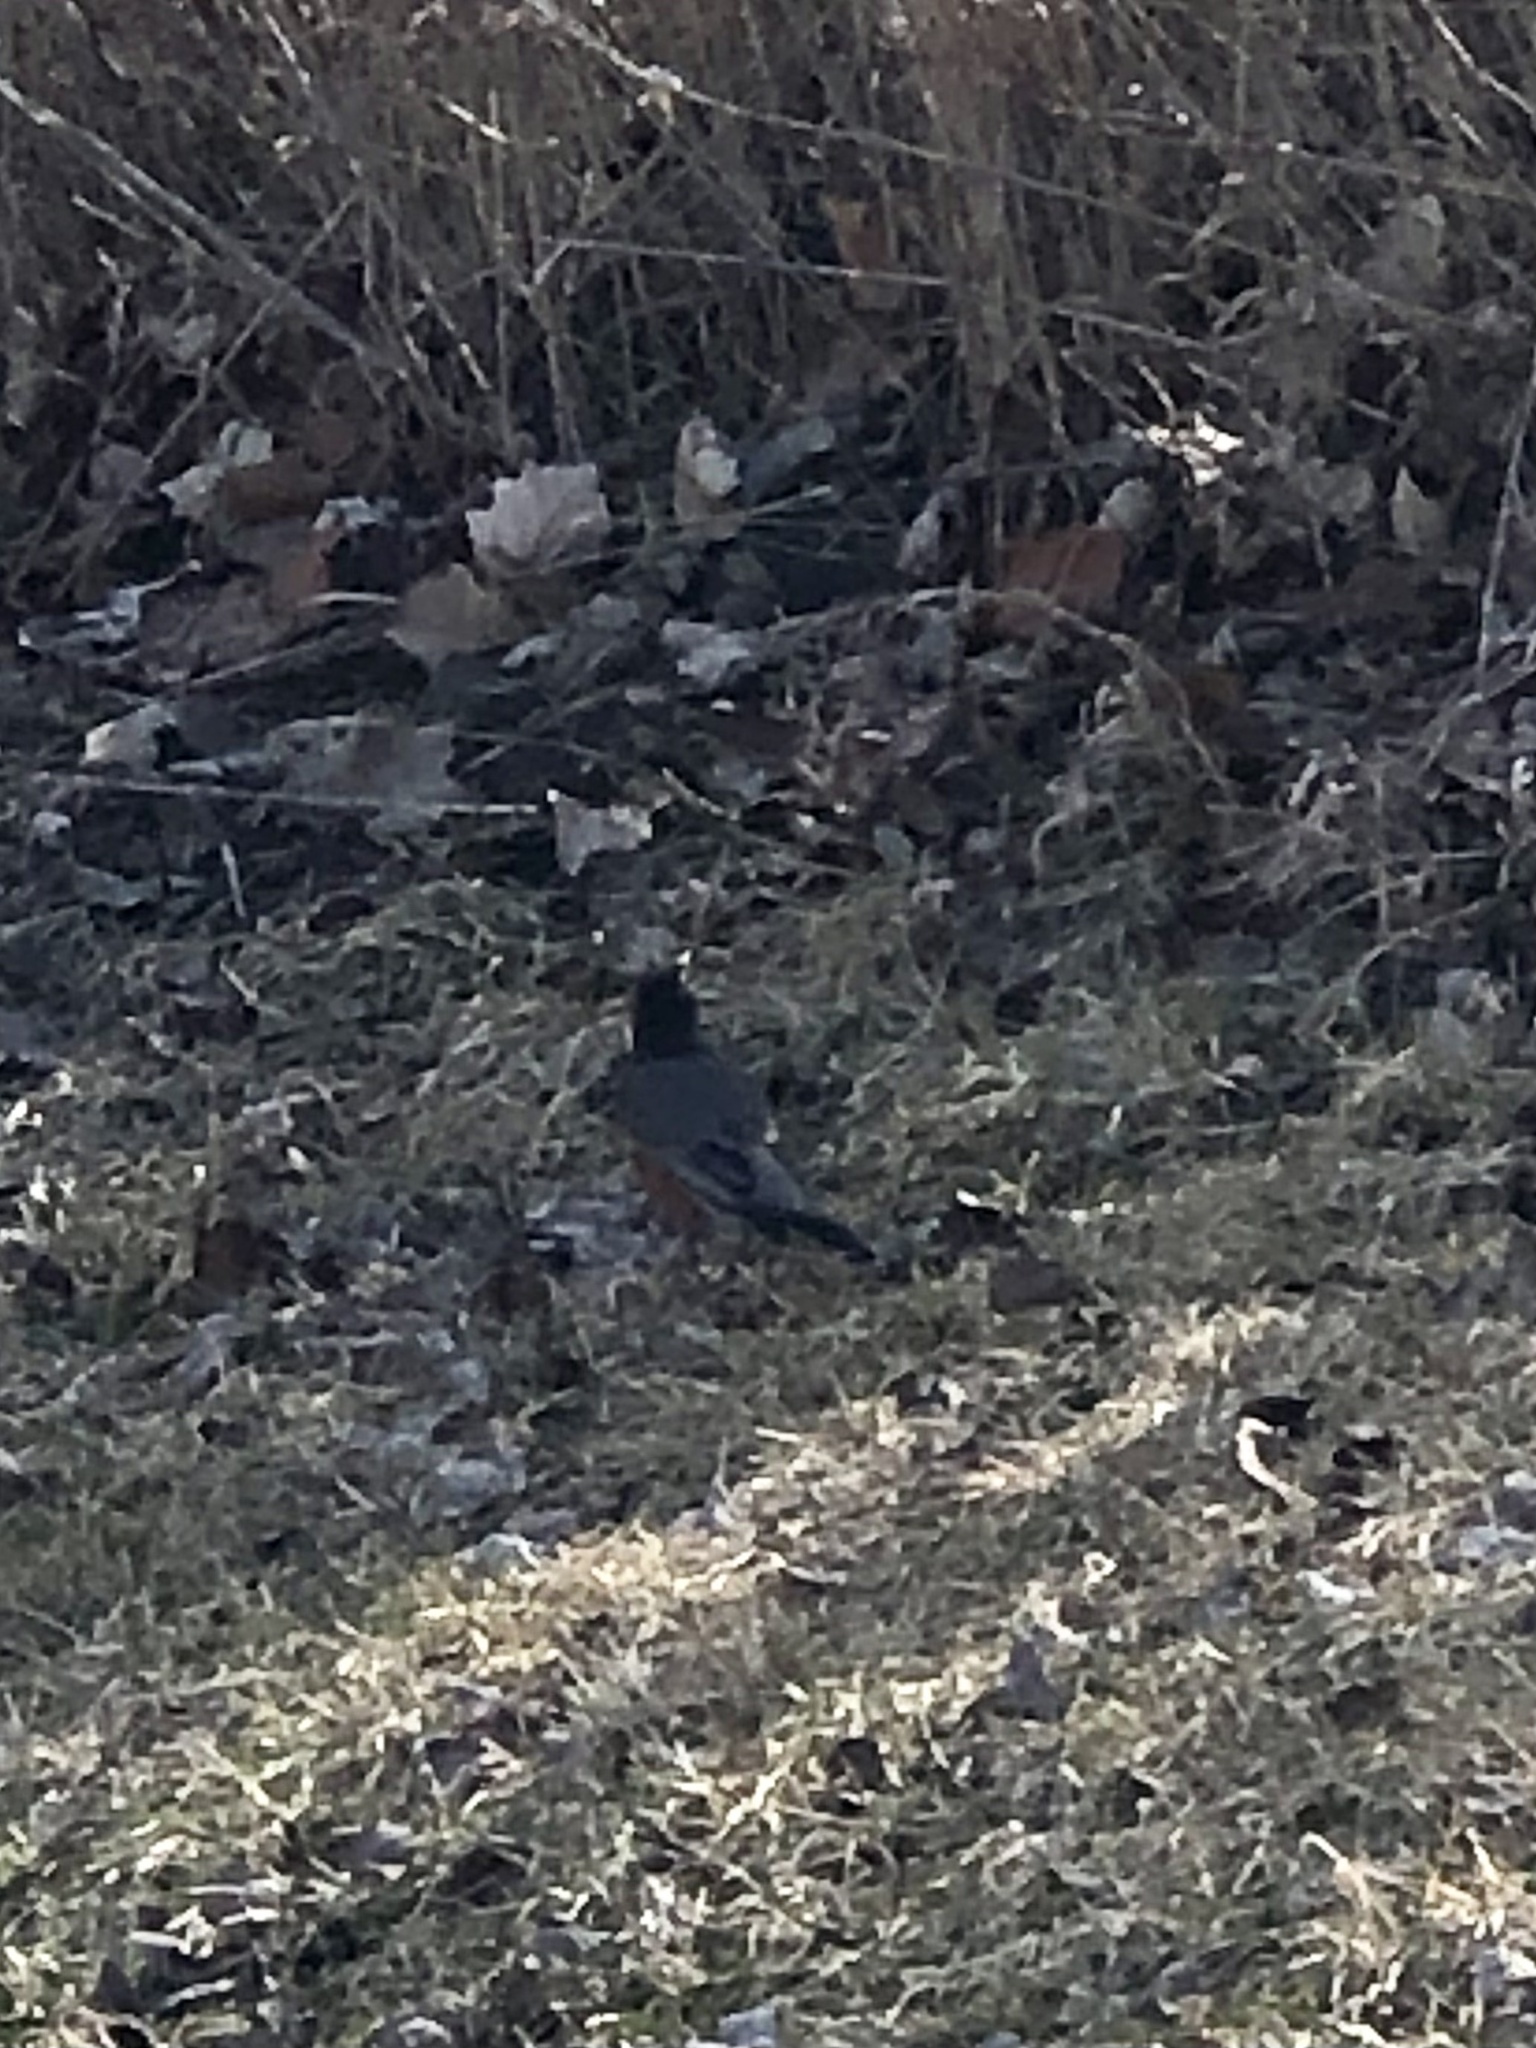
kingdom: Animalia
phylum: Chordata
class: Aves
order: Passeriformes
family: Turdidae
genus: Turdus
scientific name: Turdus migratorius
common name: American robin
